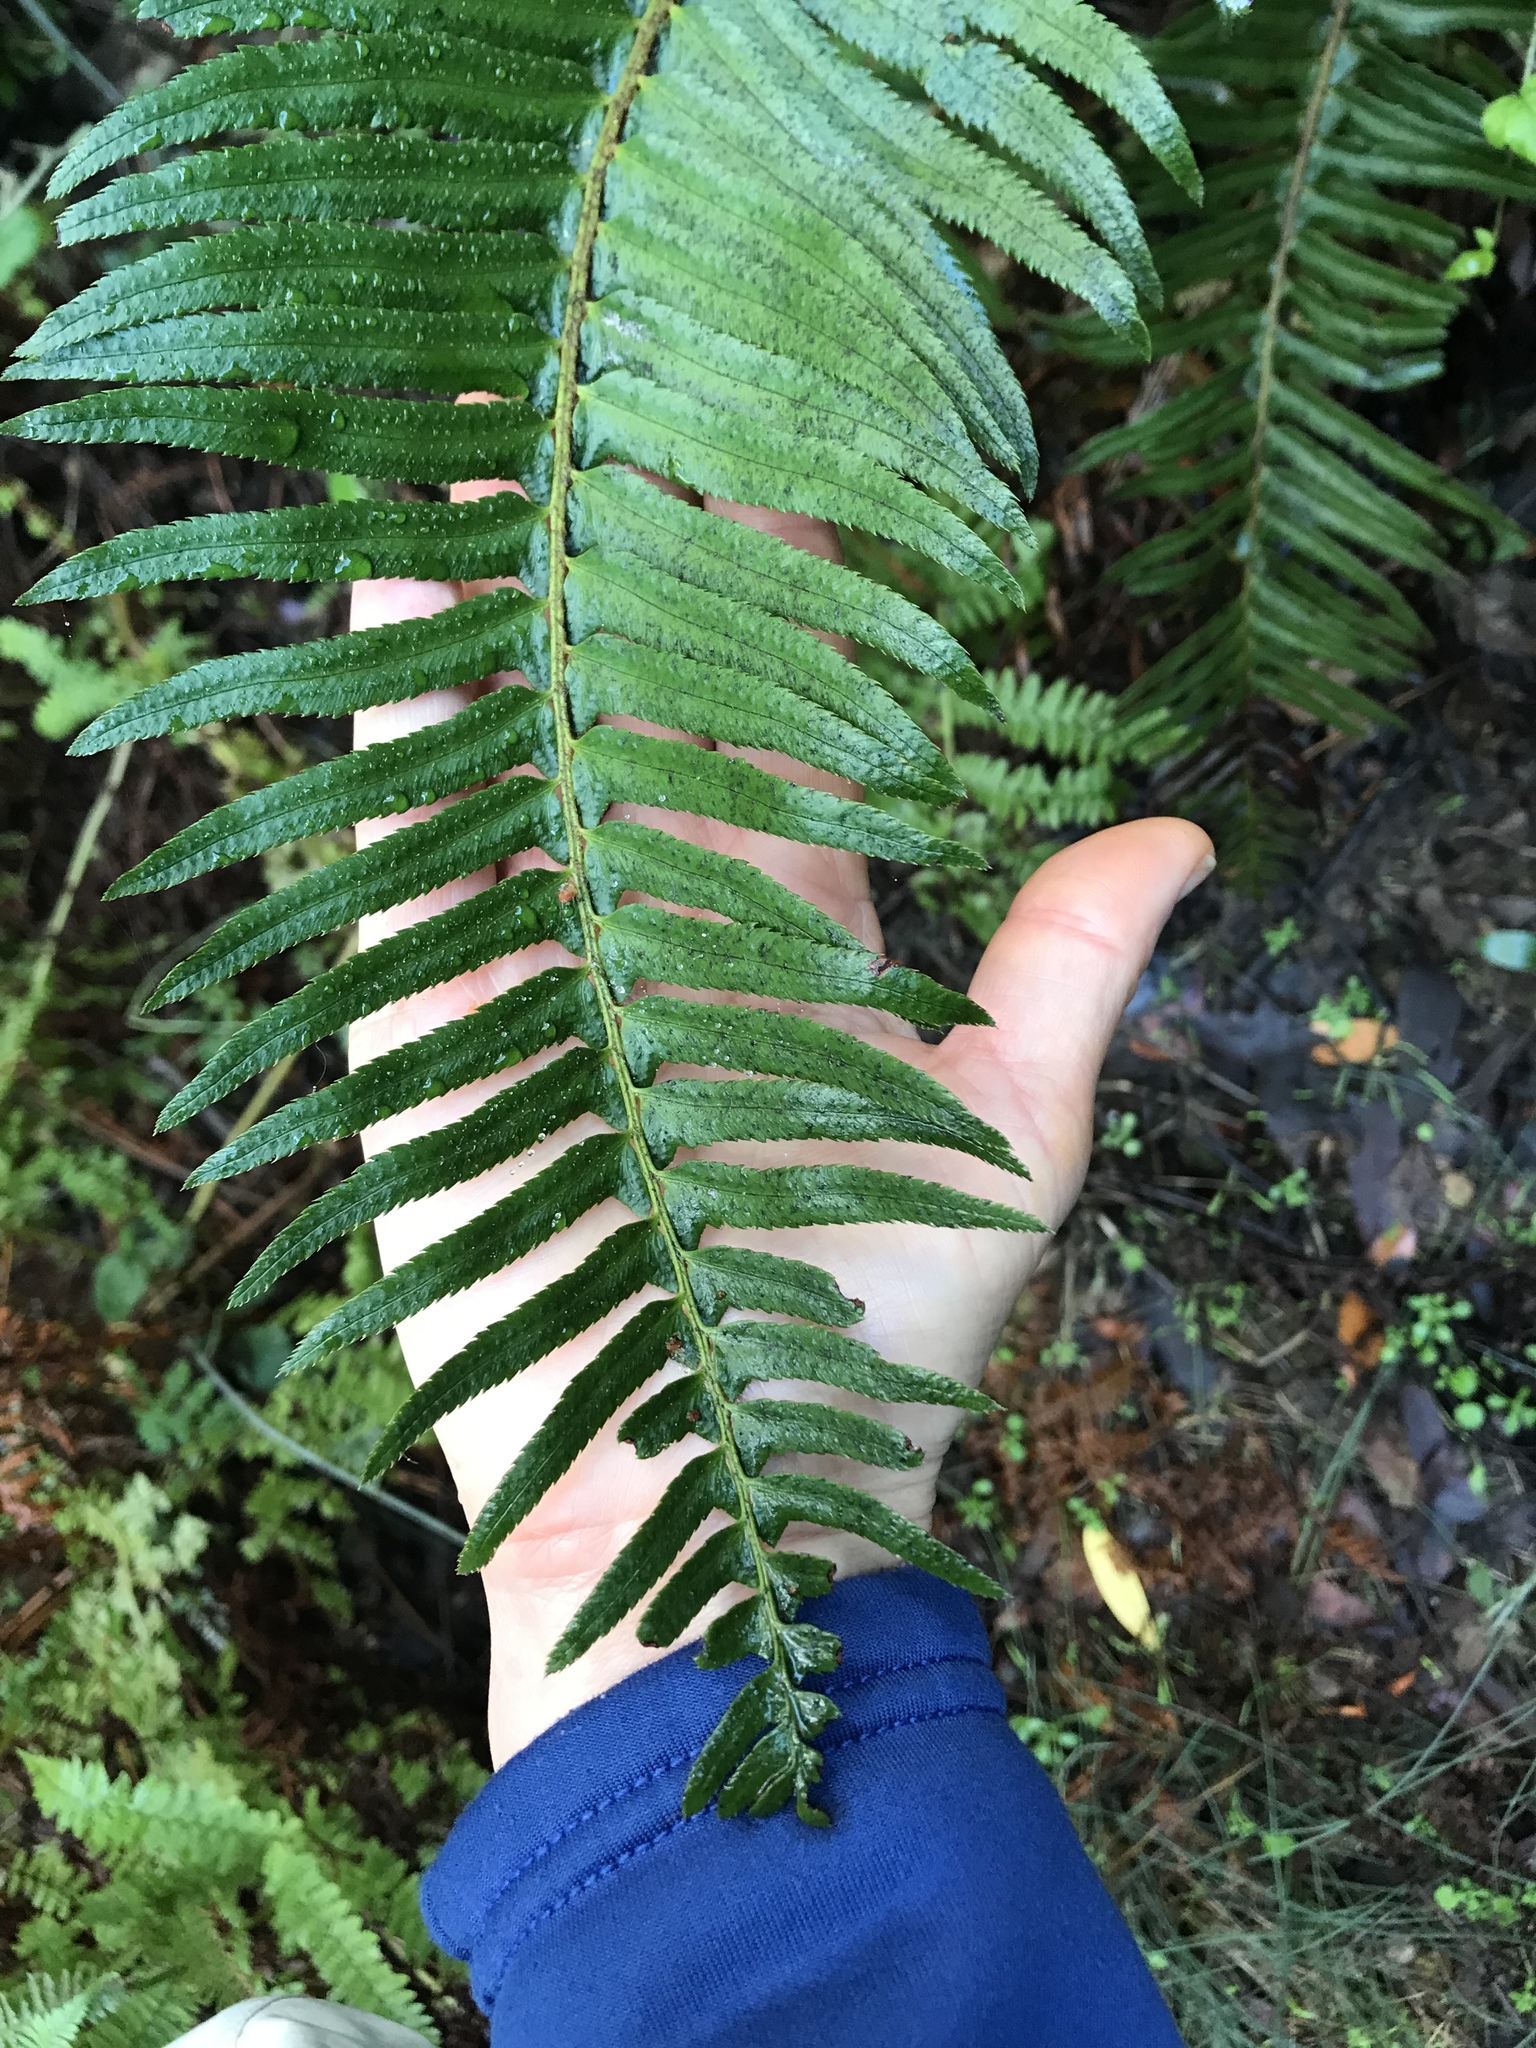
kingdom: Plantae
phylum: Tracheophyta
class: Polypodiopsida
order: Polypodiales
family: Dryopteridaceae
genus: Polystichum
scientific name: Polystichum munitum
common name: Western sword-fern
